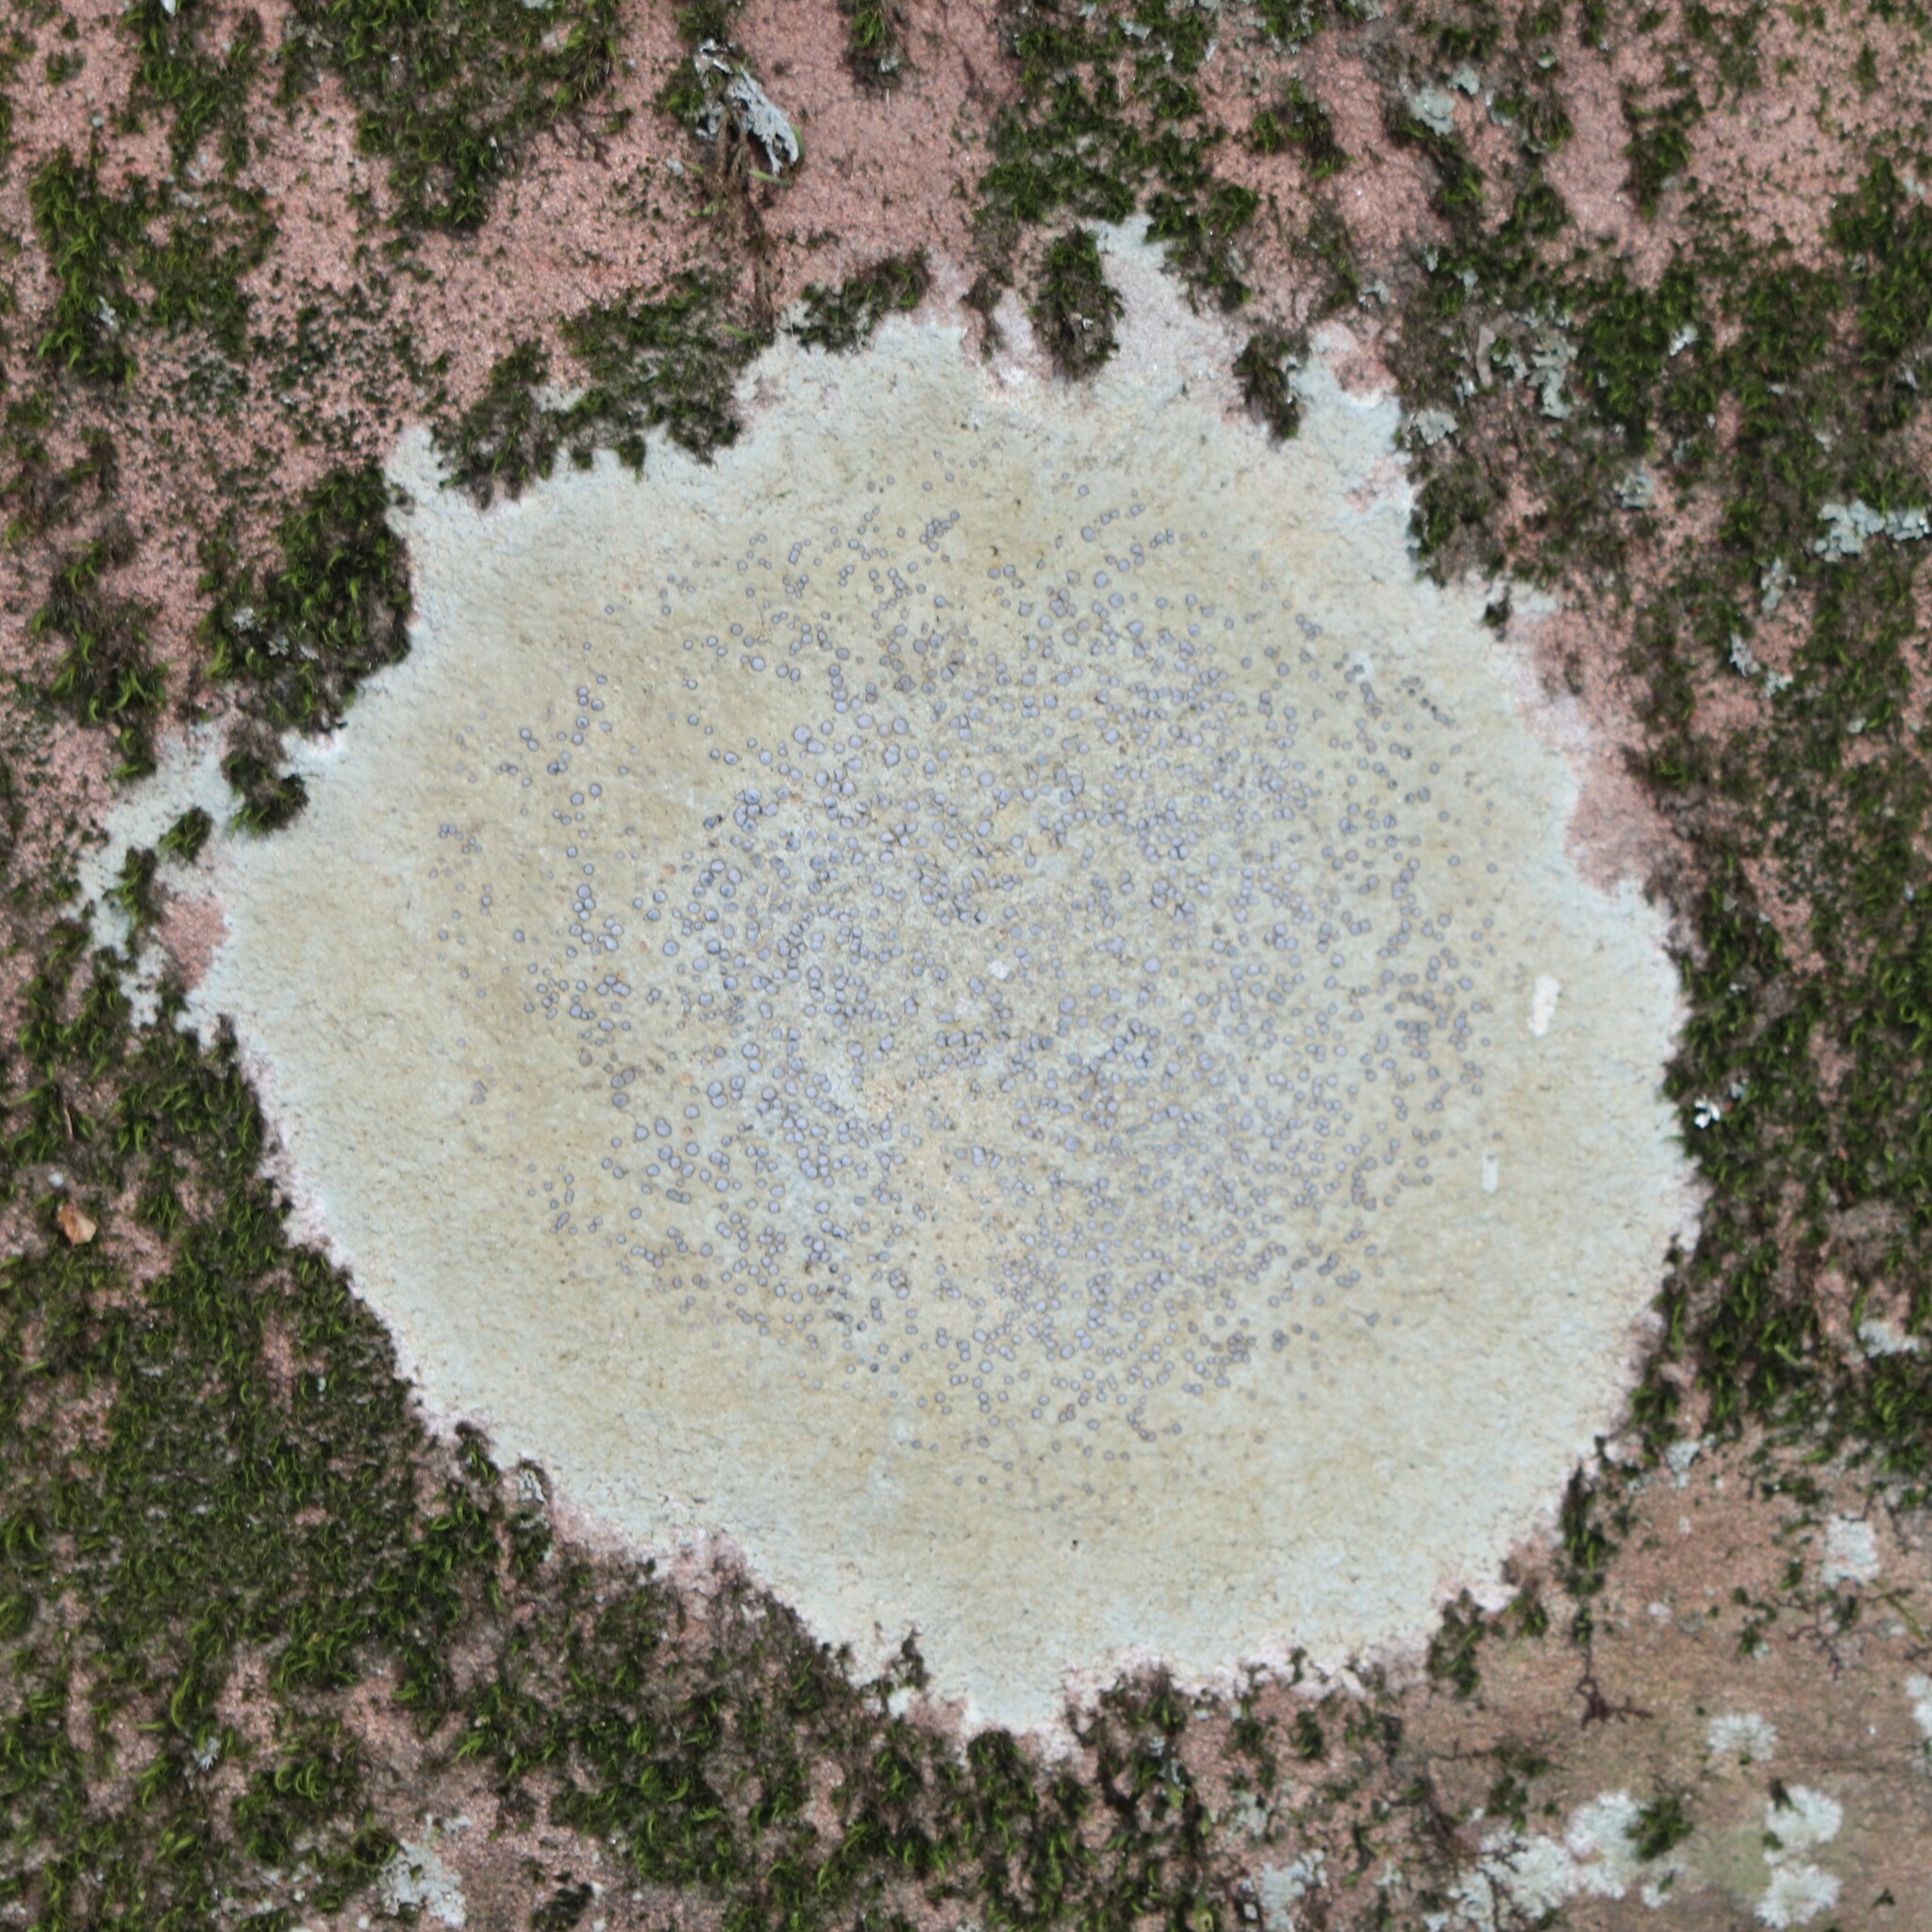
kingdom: Fungi
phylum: Ascomycota
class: Lecanoromycetes
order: Lecideales
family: Lecideaceae
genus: Porpidia
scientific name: Porpidia albocaerulescens
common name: Smokey-eyed boulder lichen
